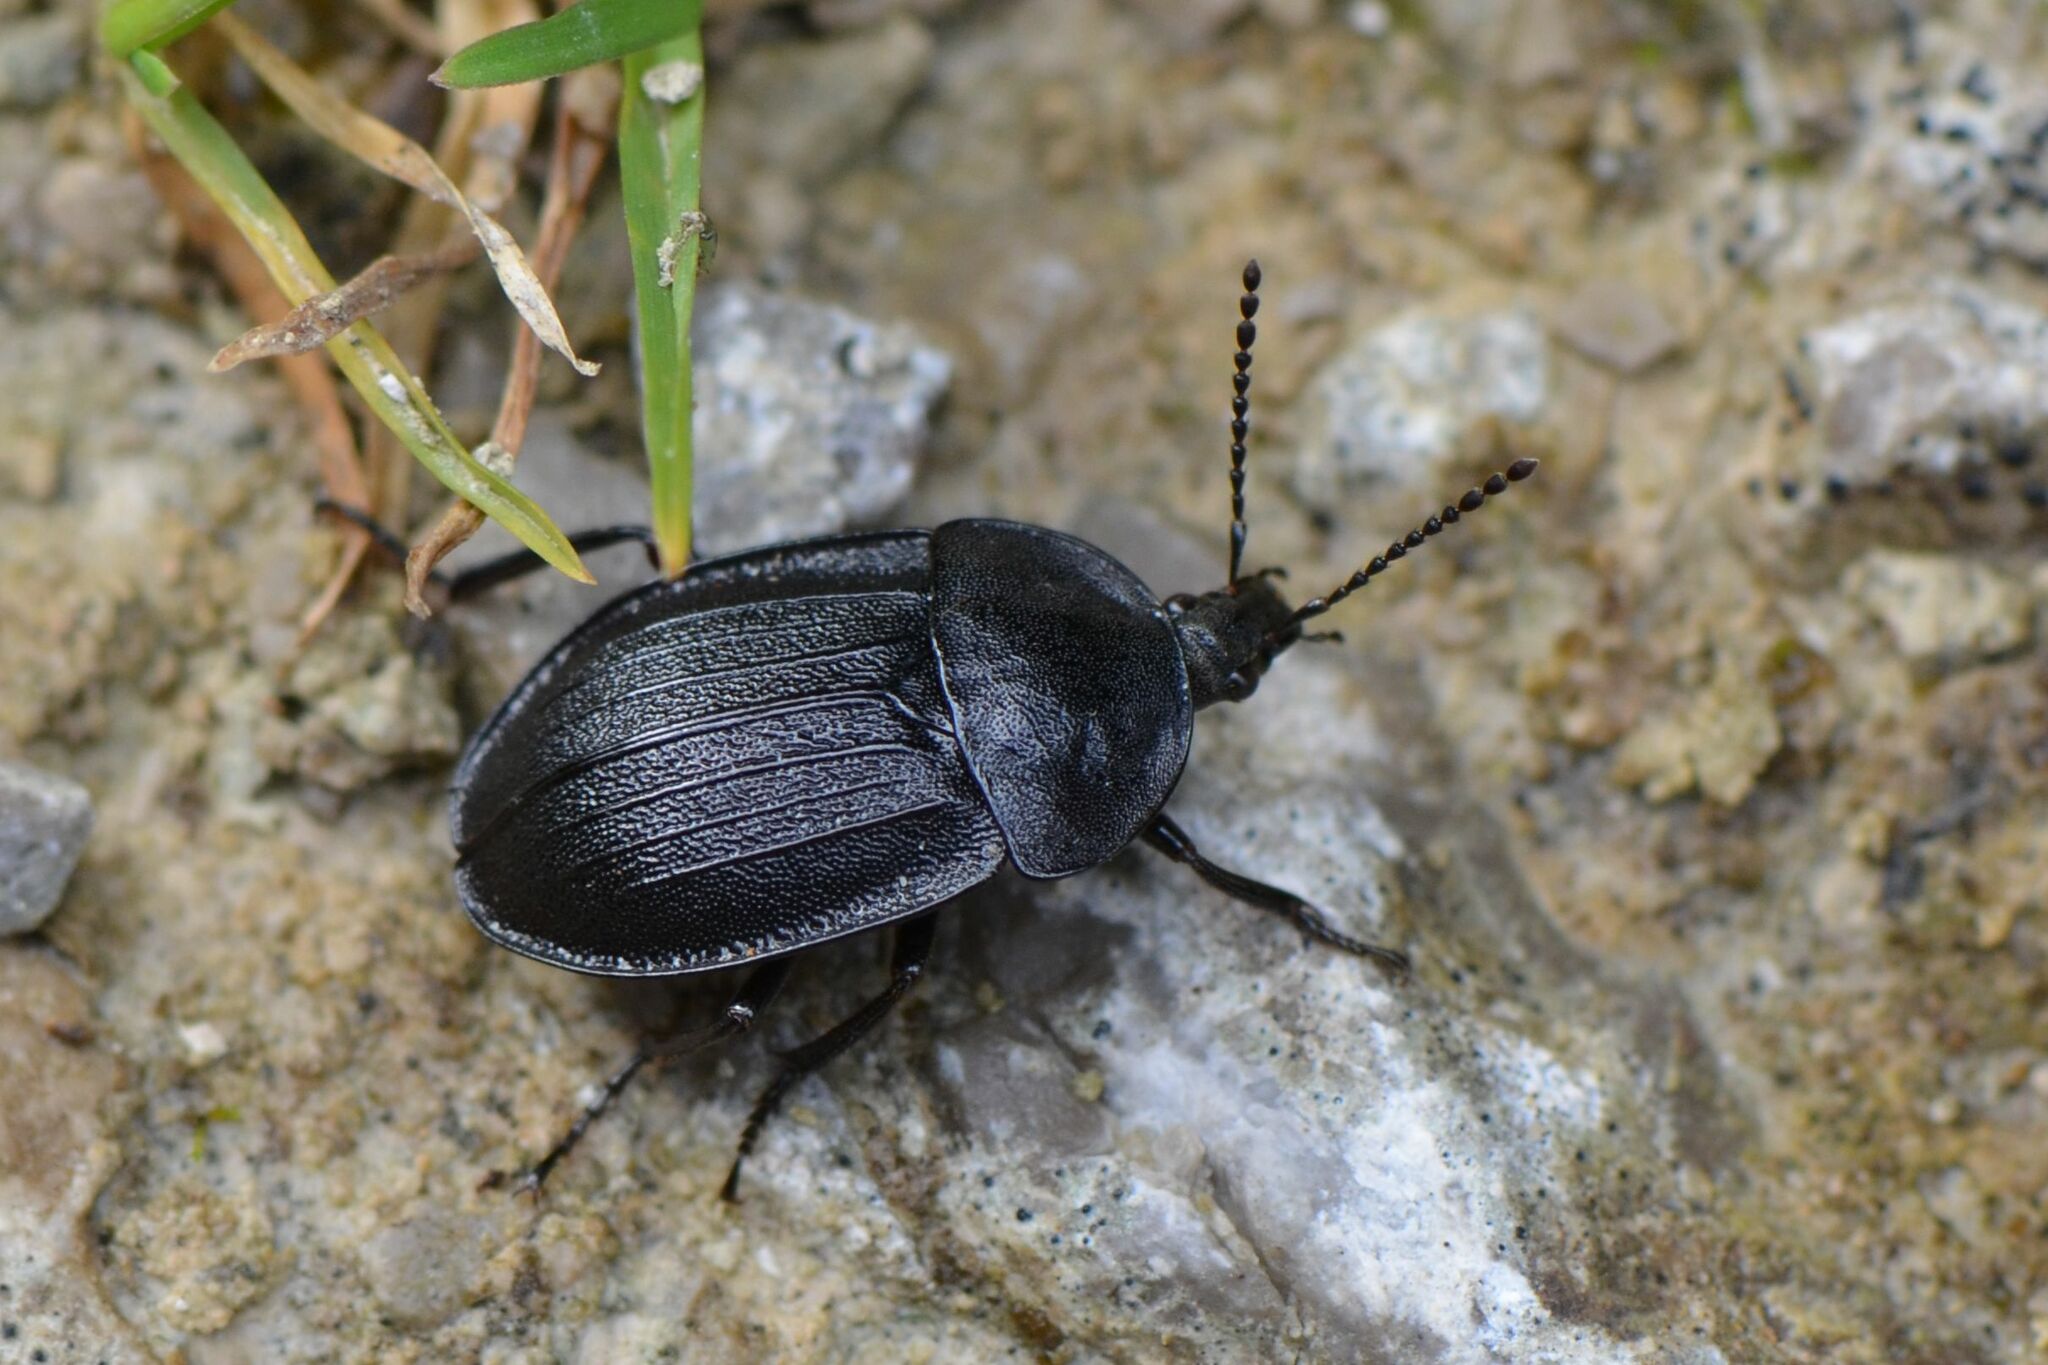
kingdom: Animalia
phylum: Arthropoda
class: Insecta
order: Coleoptera
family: Staphylinidae
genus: Silpha
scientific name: Silpha atrata
